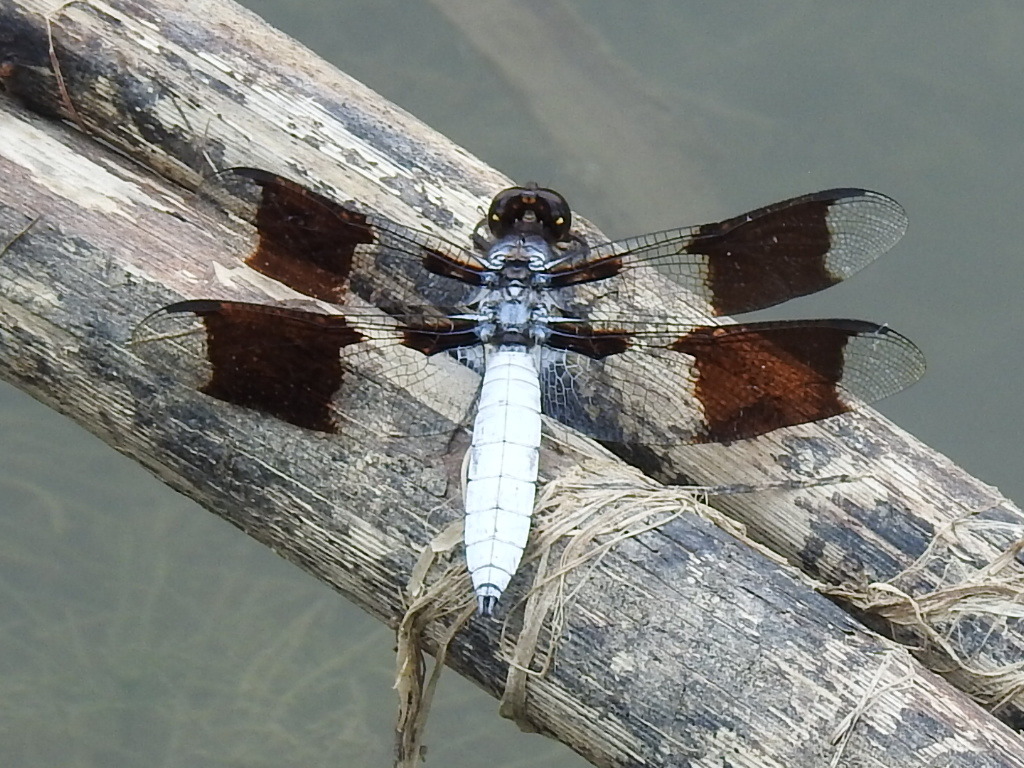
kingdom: Animalia
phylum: Arthropoda
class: Insecta
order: Odonata
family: Libellulidae
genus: Plathemis
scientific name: Plathemis lydia
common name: Common whitetail
